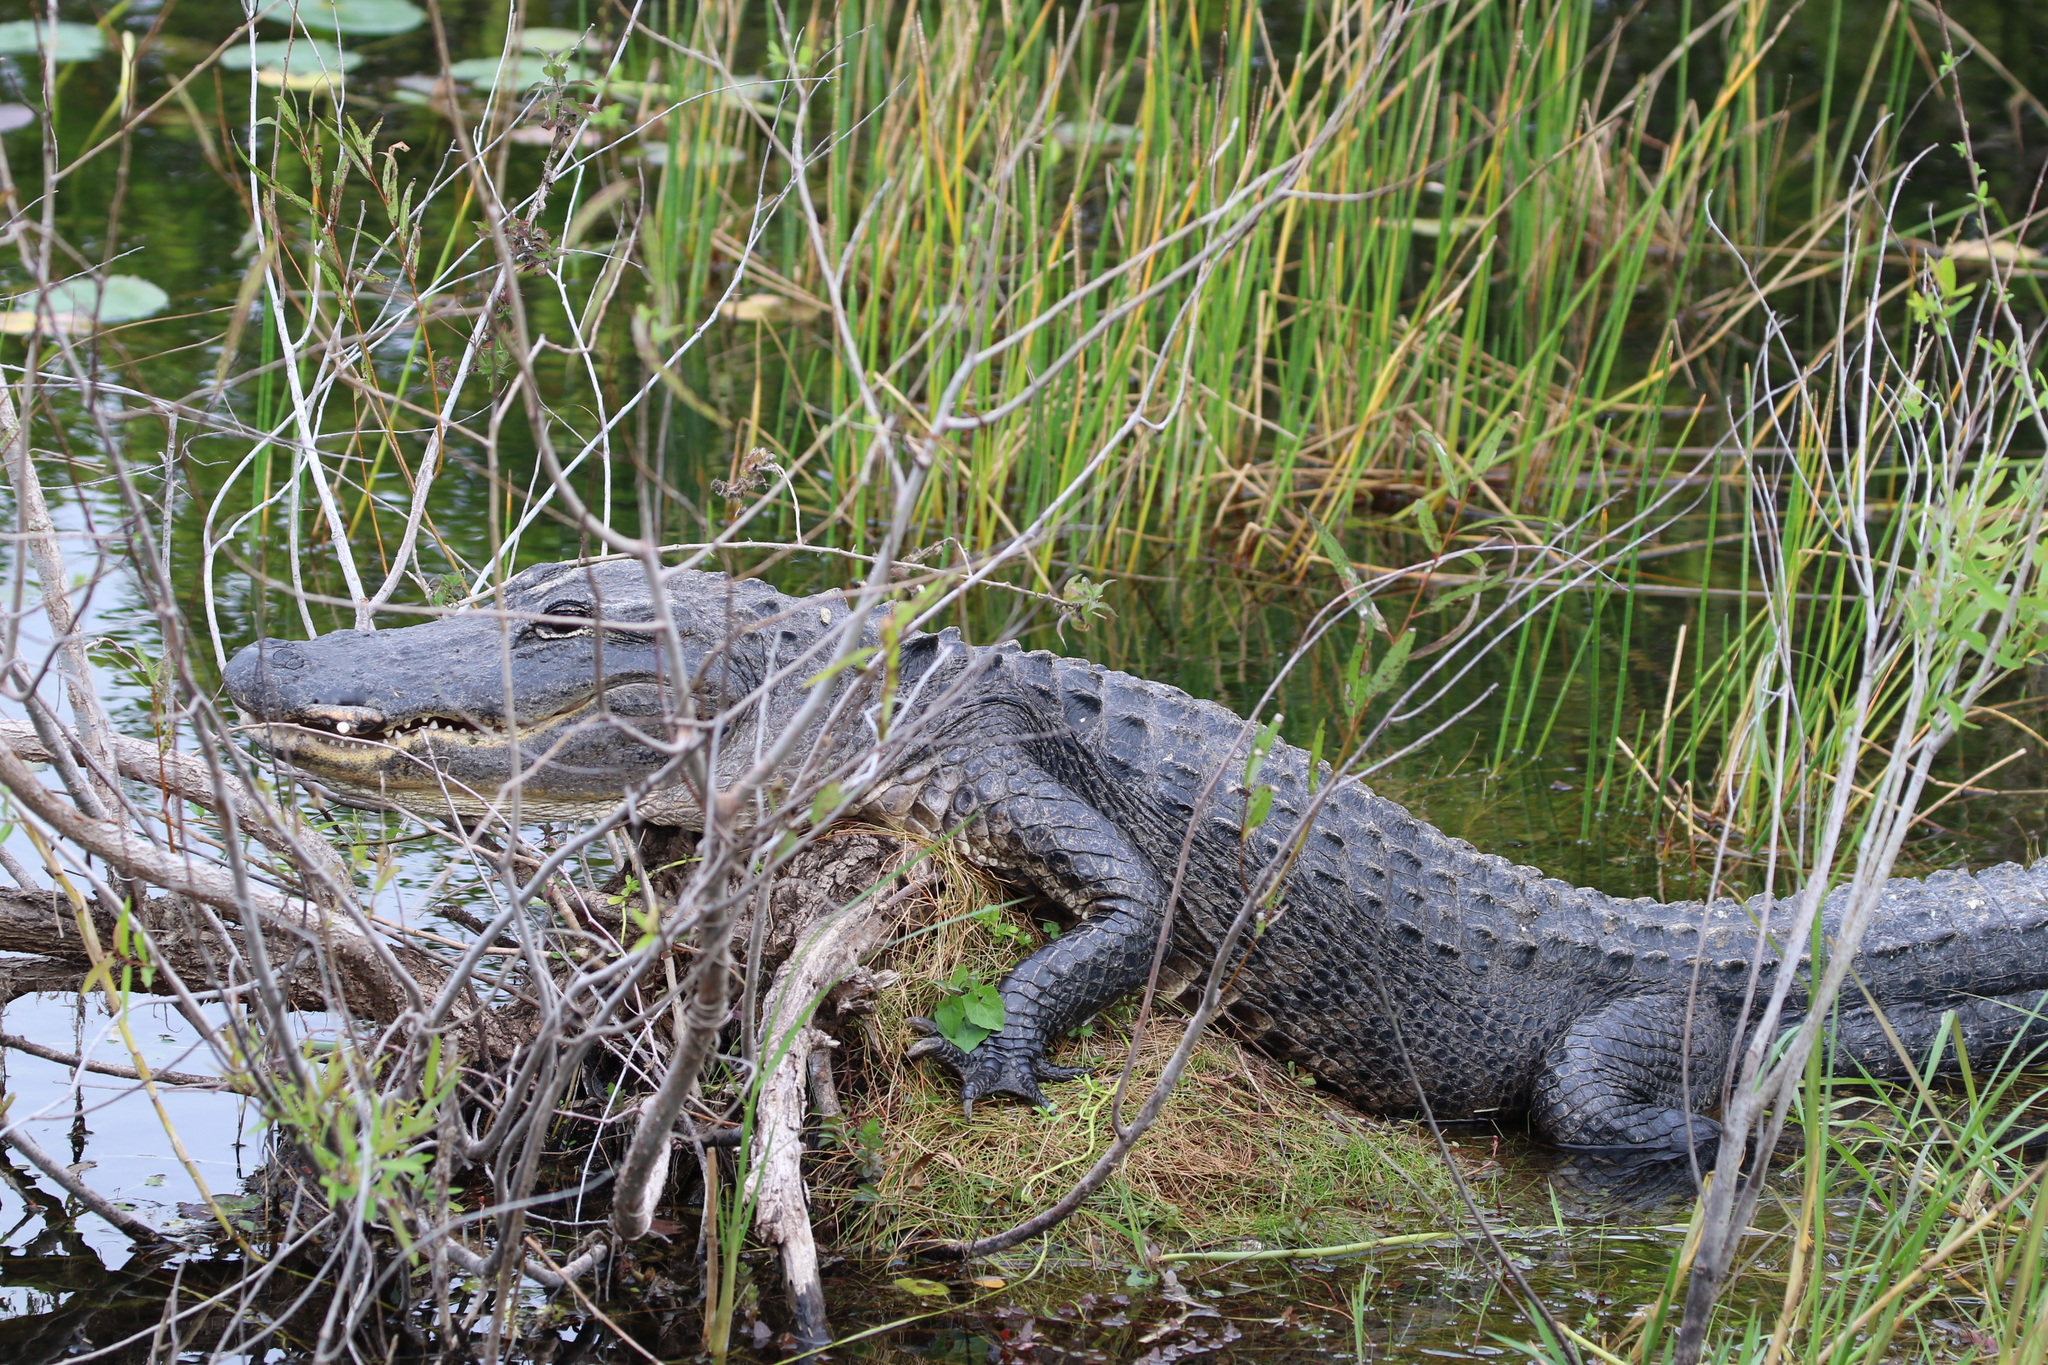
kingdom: Animalia
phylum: Chordata
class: Crocodylia
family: Alligatoridae
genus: Alligator
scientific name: Alligator mississippiensis
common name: American alligator
